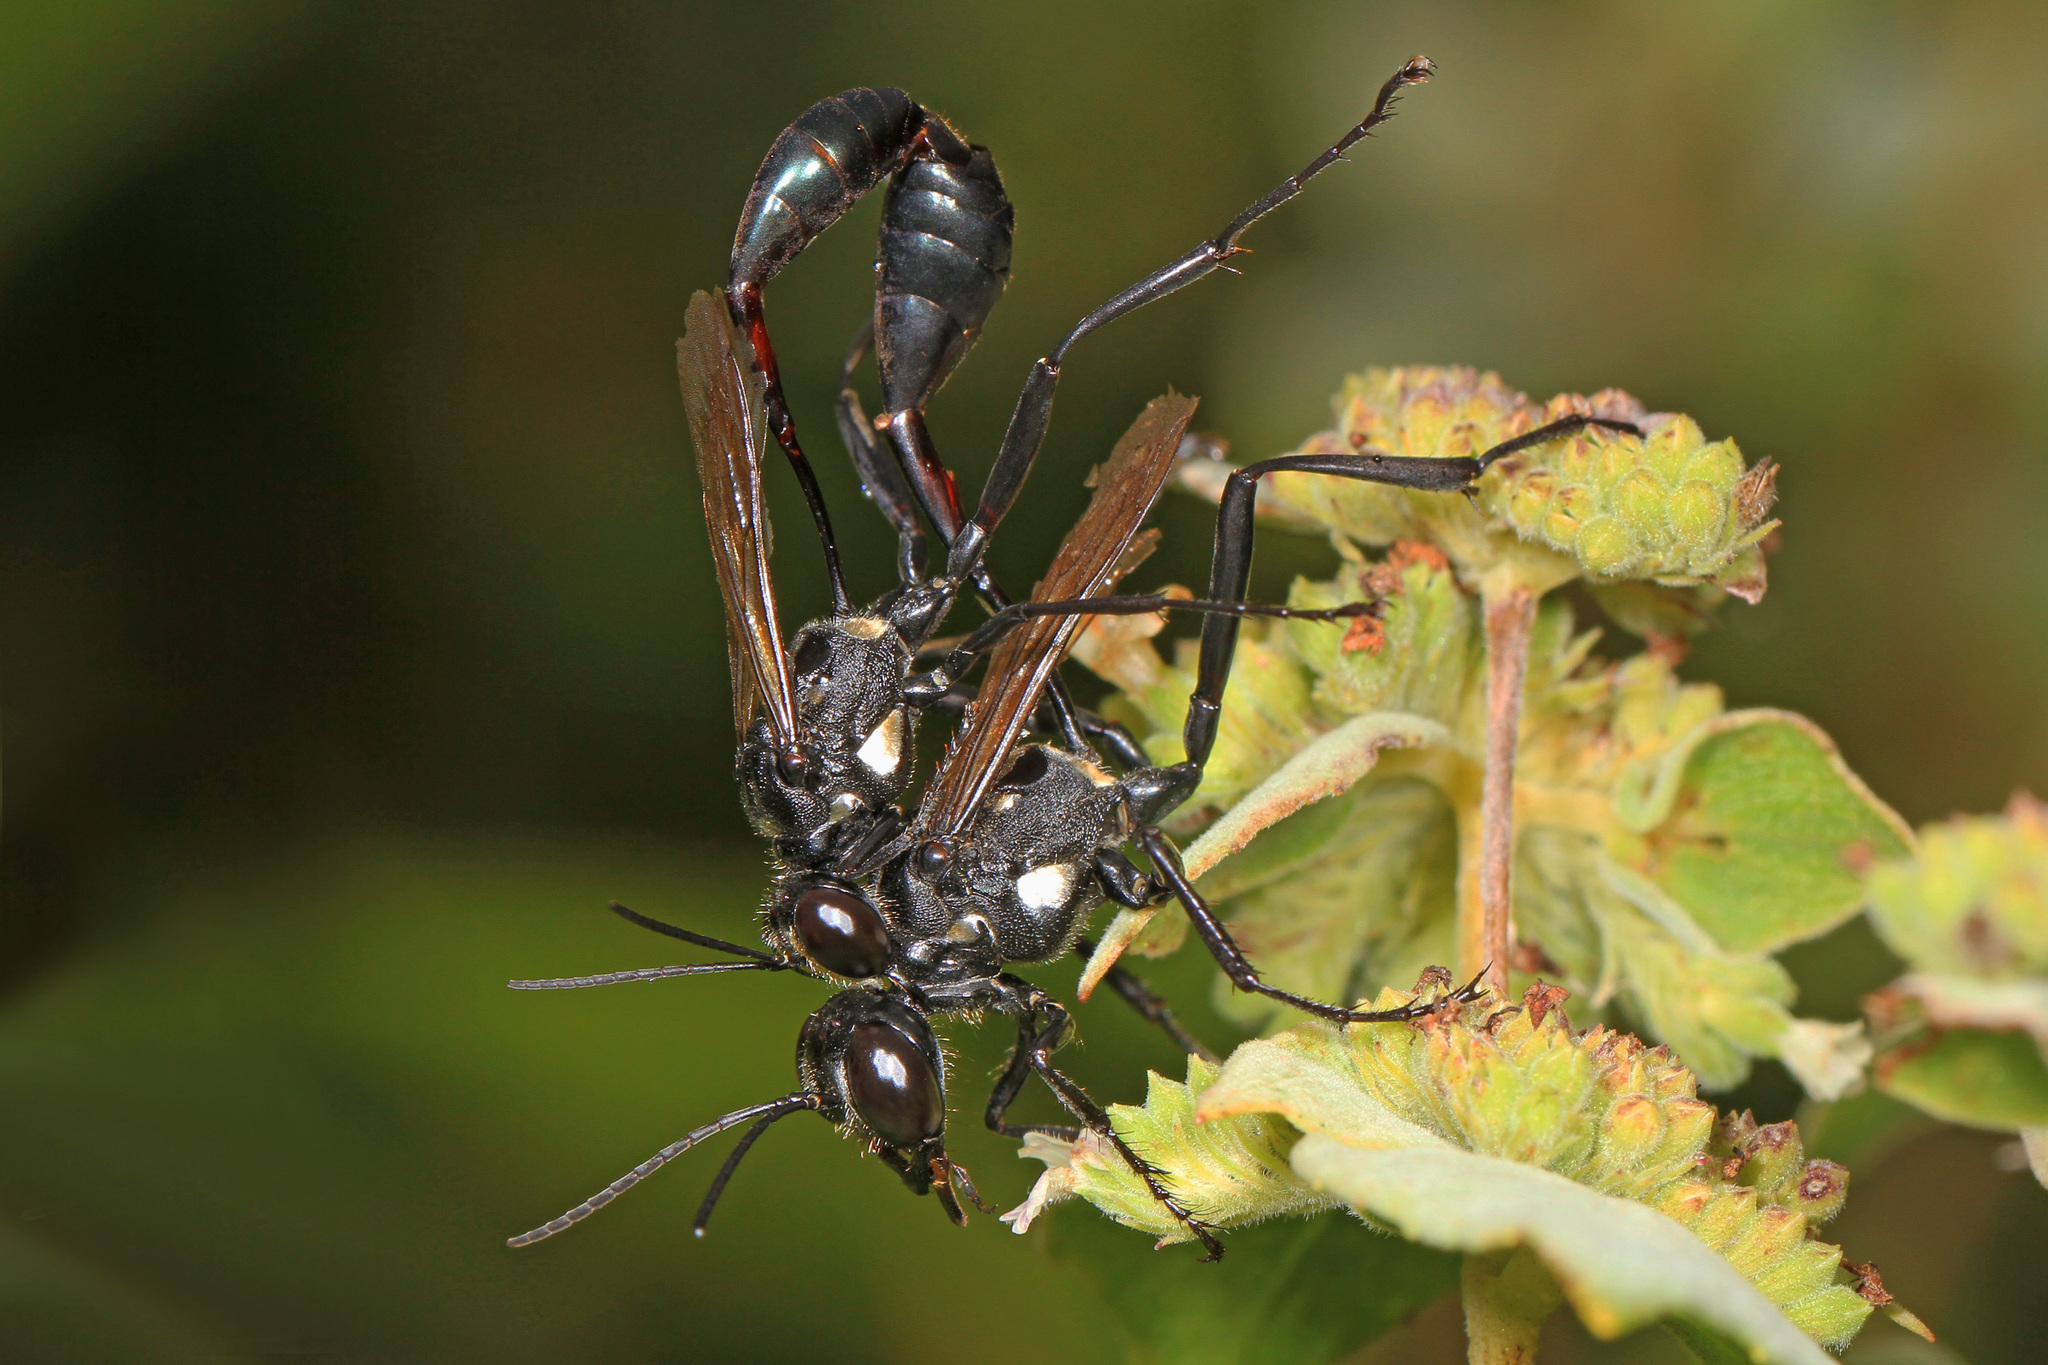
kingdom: Animalia
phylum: Arthropoda
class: Insecta
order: Hymenoptera
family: Sphecidae
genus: Eremnophila
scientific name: Eremnophila aureonotata
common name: Gold-marked thread-waisted wasp
